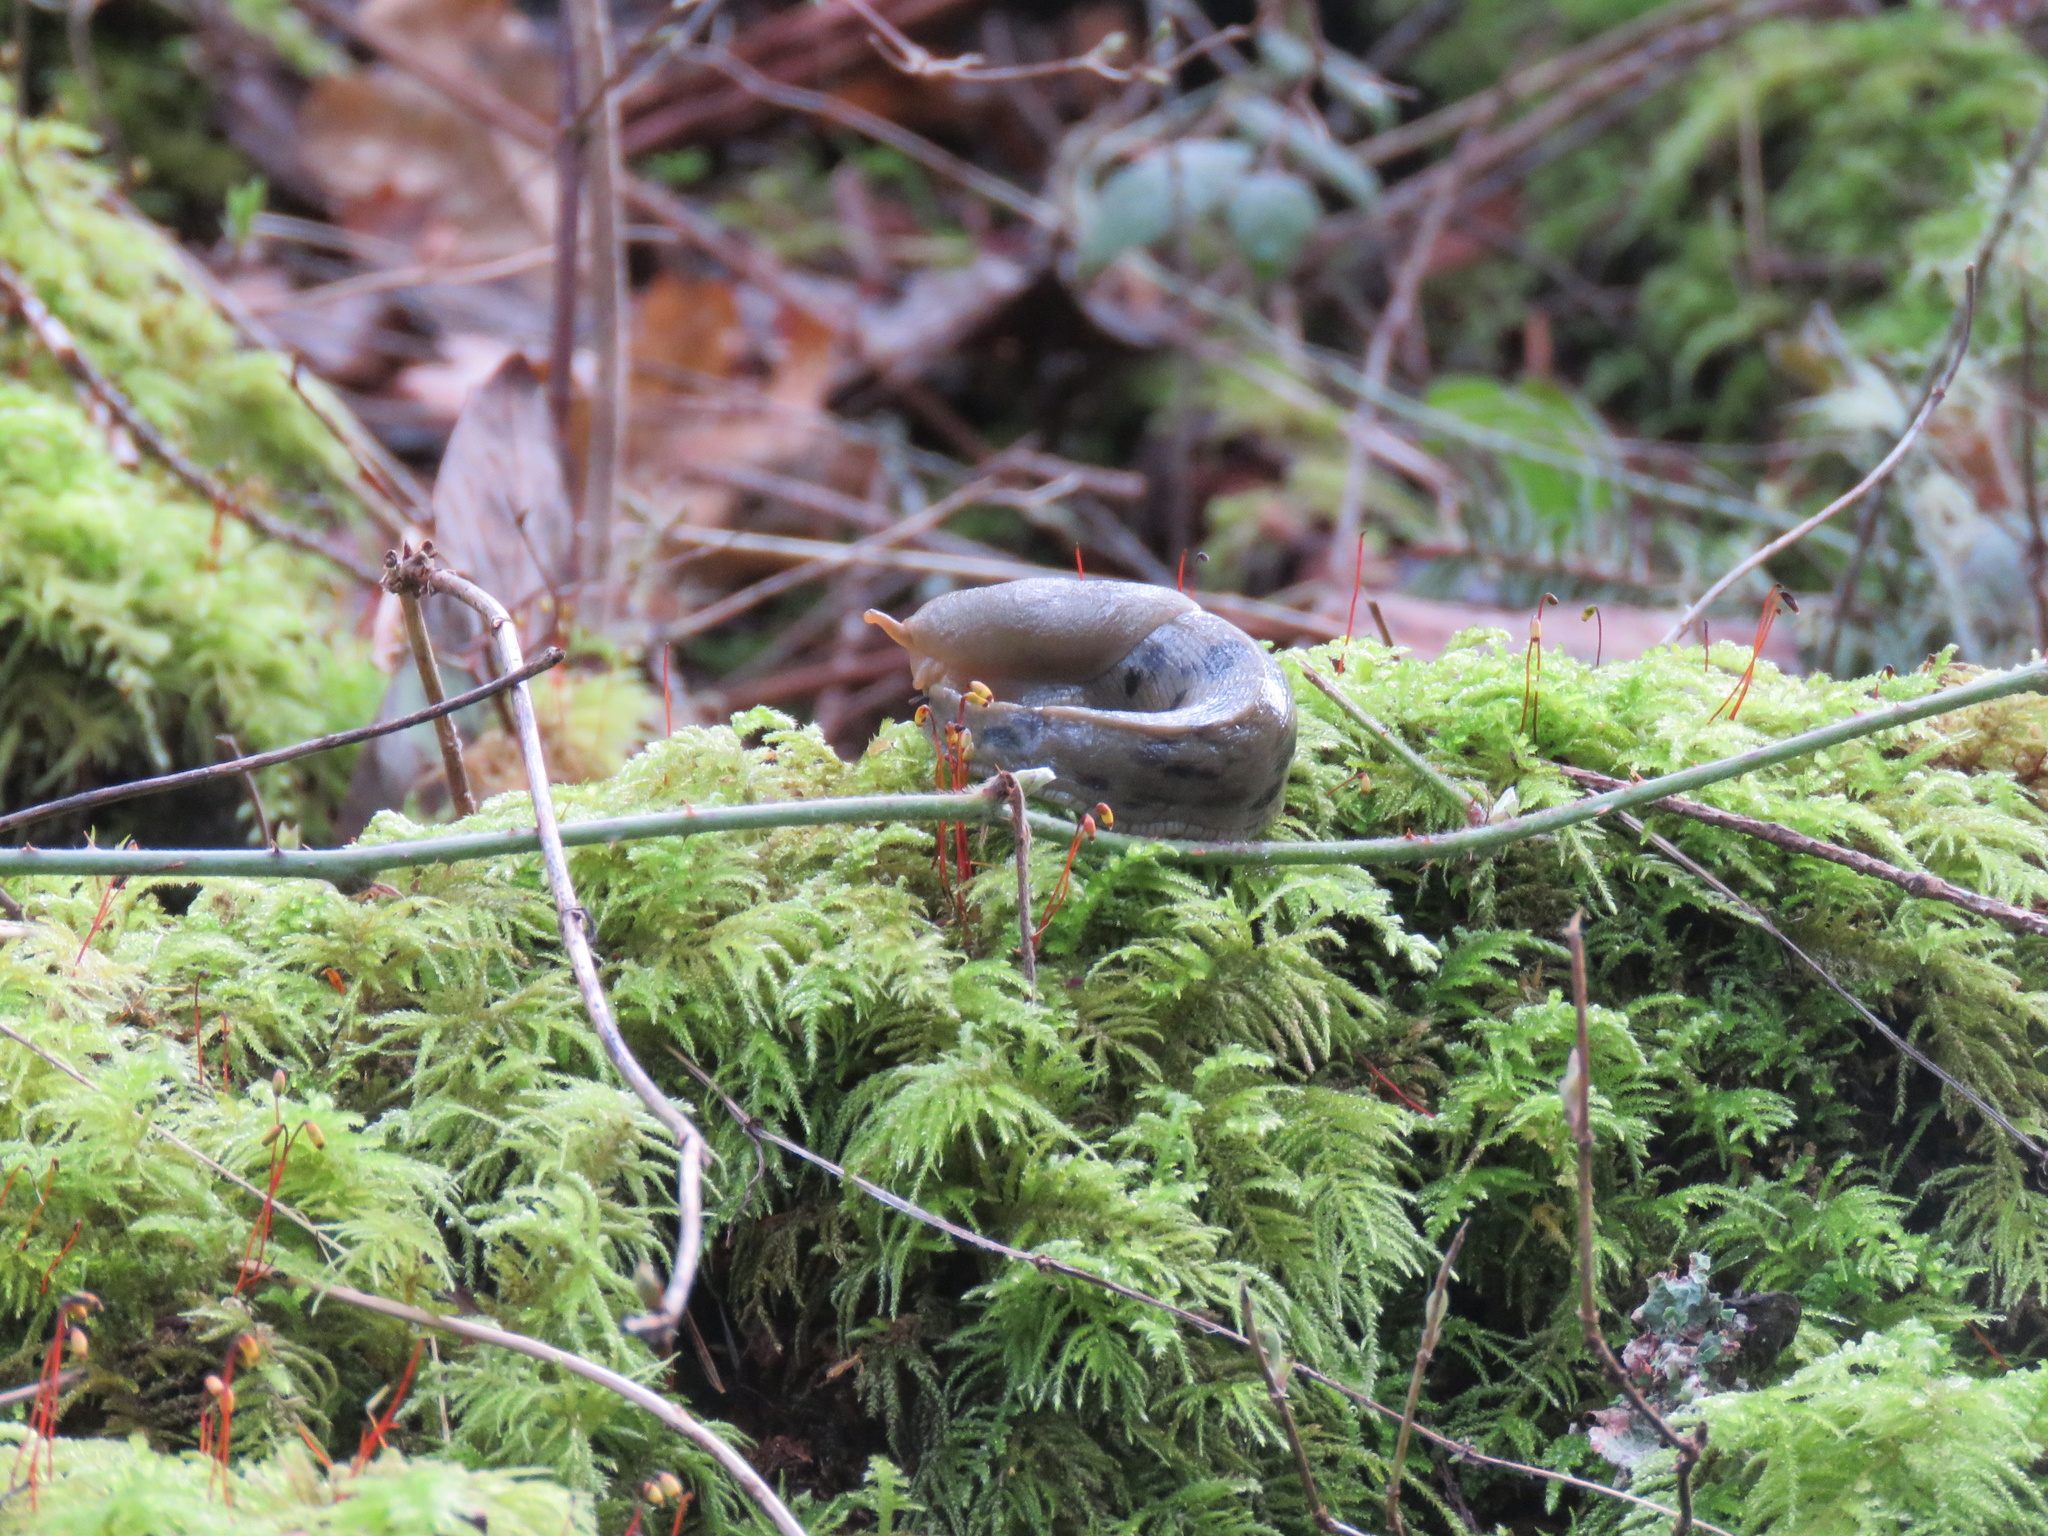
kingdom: Animalia
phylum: Mollusca
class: Gastropoda
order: Stylommatophora
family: Ariolimacidae
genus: Ariolimax
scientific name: Ariolimax columbianus
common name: Pacific banana slug
